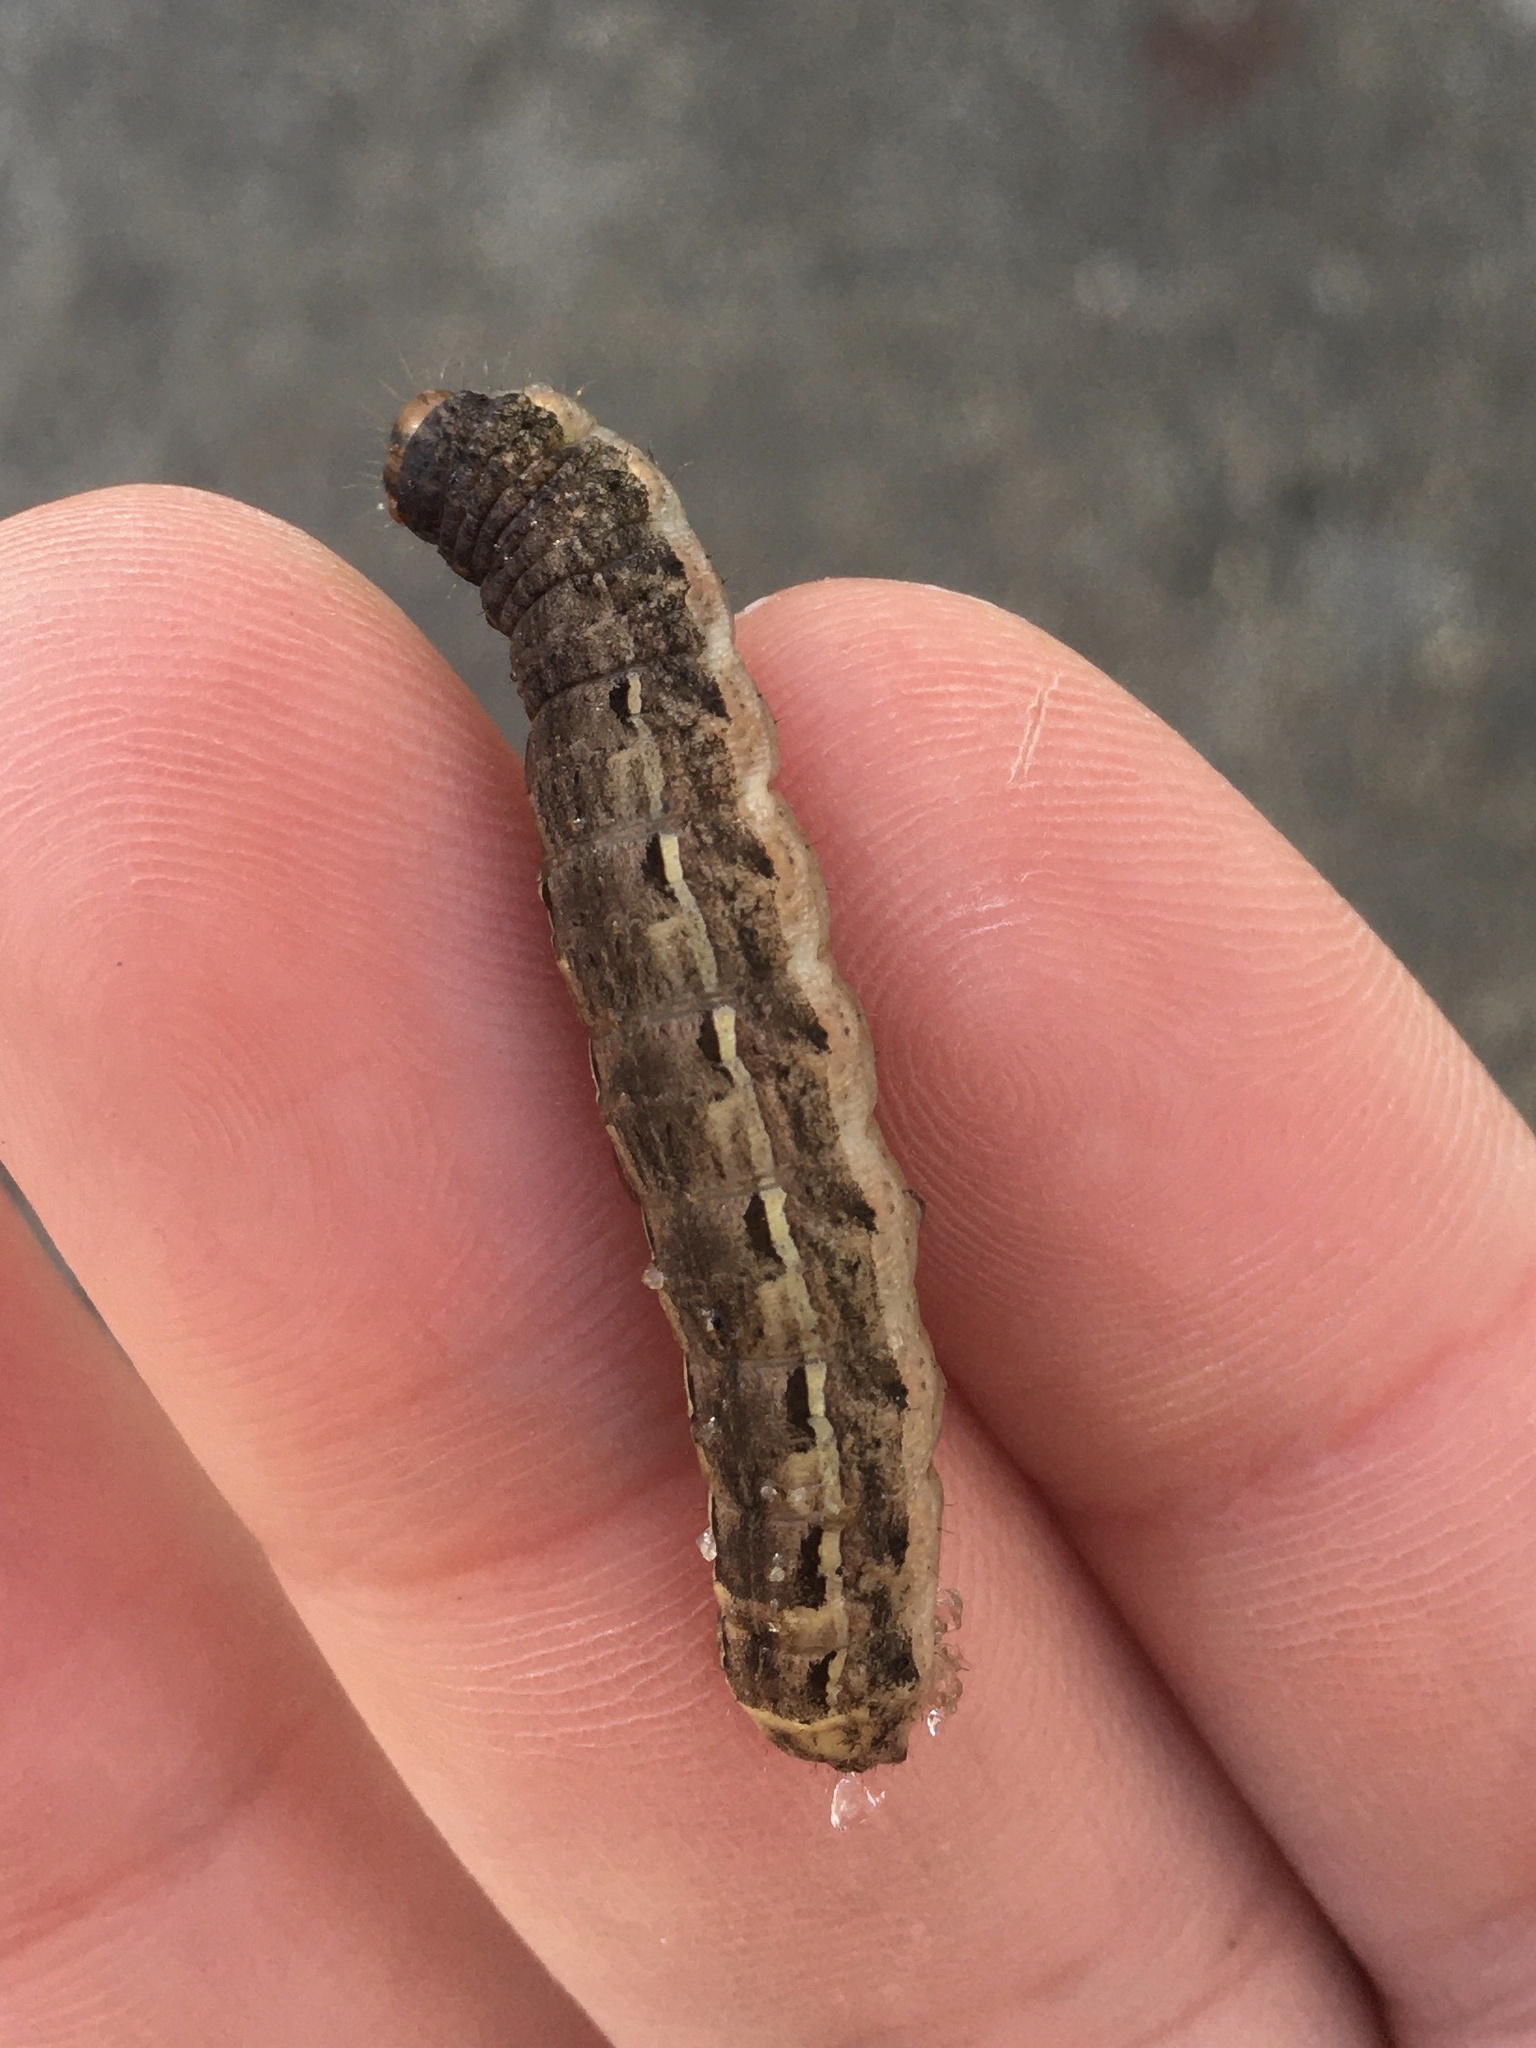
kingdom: Animalia
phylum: Arthropoda
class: Insecta
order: Lepidoptera
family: Noctuidae
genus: Noctua
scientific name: Noctua pronuba
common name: Large yellow underwing
